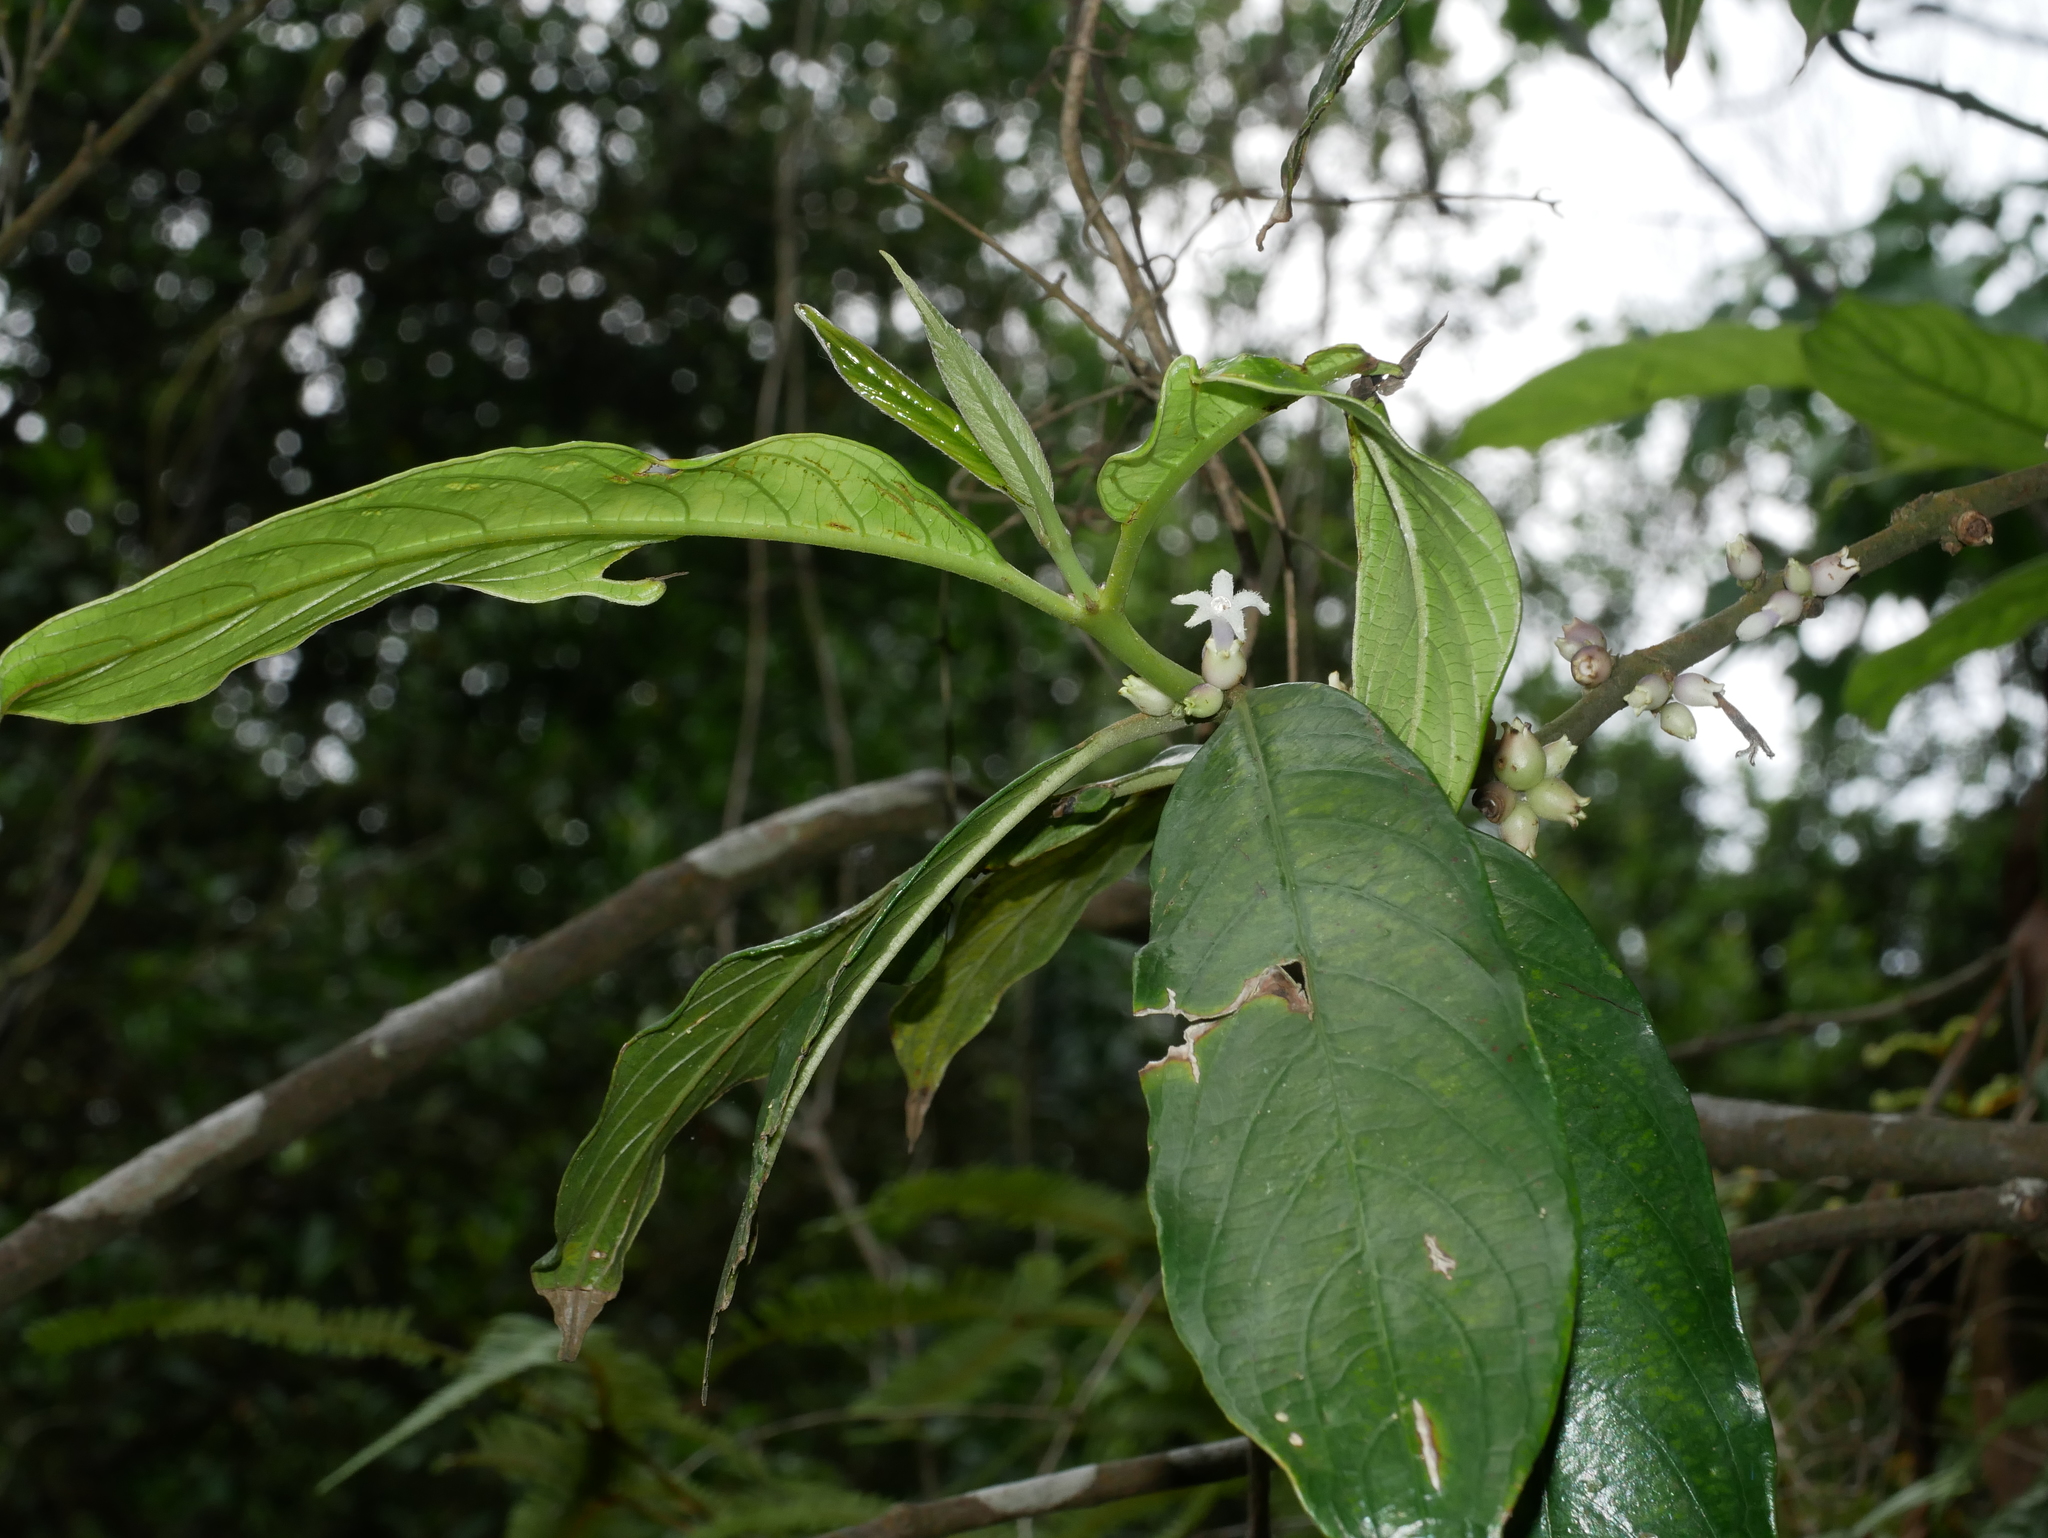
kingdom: Plantae
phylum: Tracheophyta
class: Magnoliopsida
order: Gentianales
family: Rubiaceae
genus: Lasianthus
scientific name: Lasianthus chinensis
